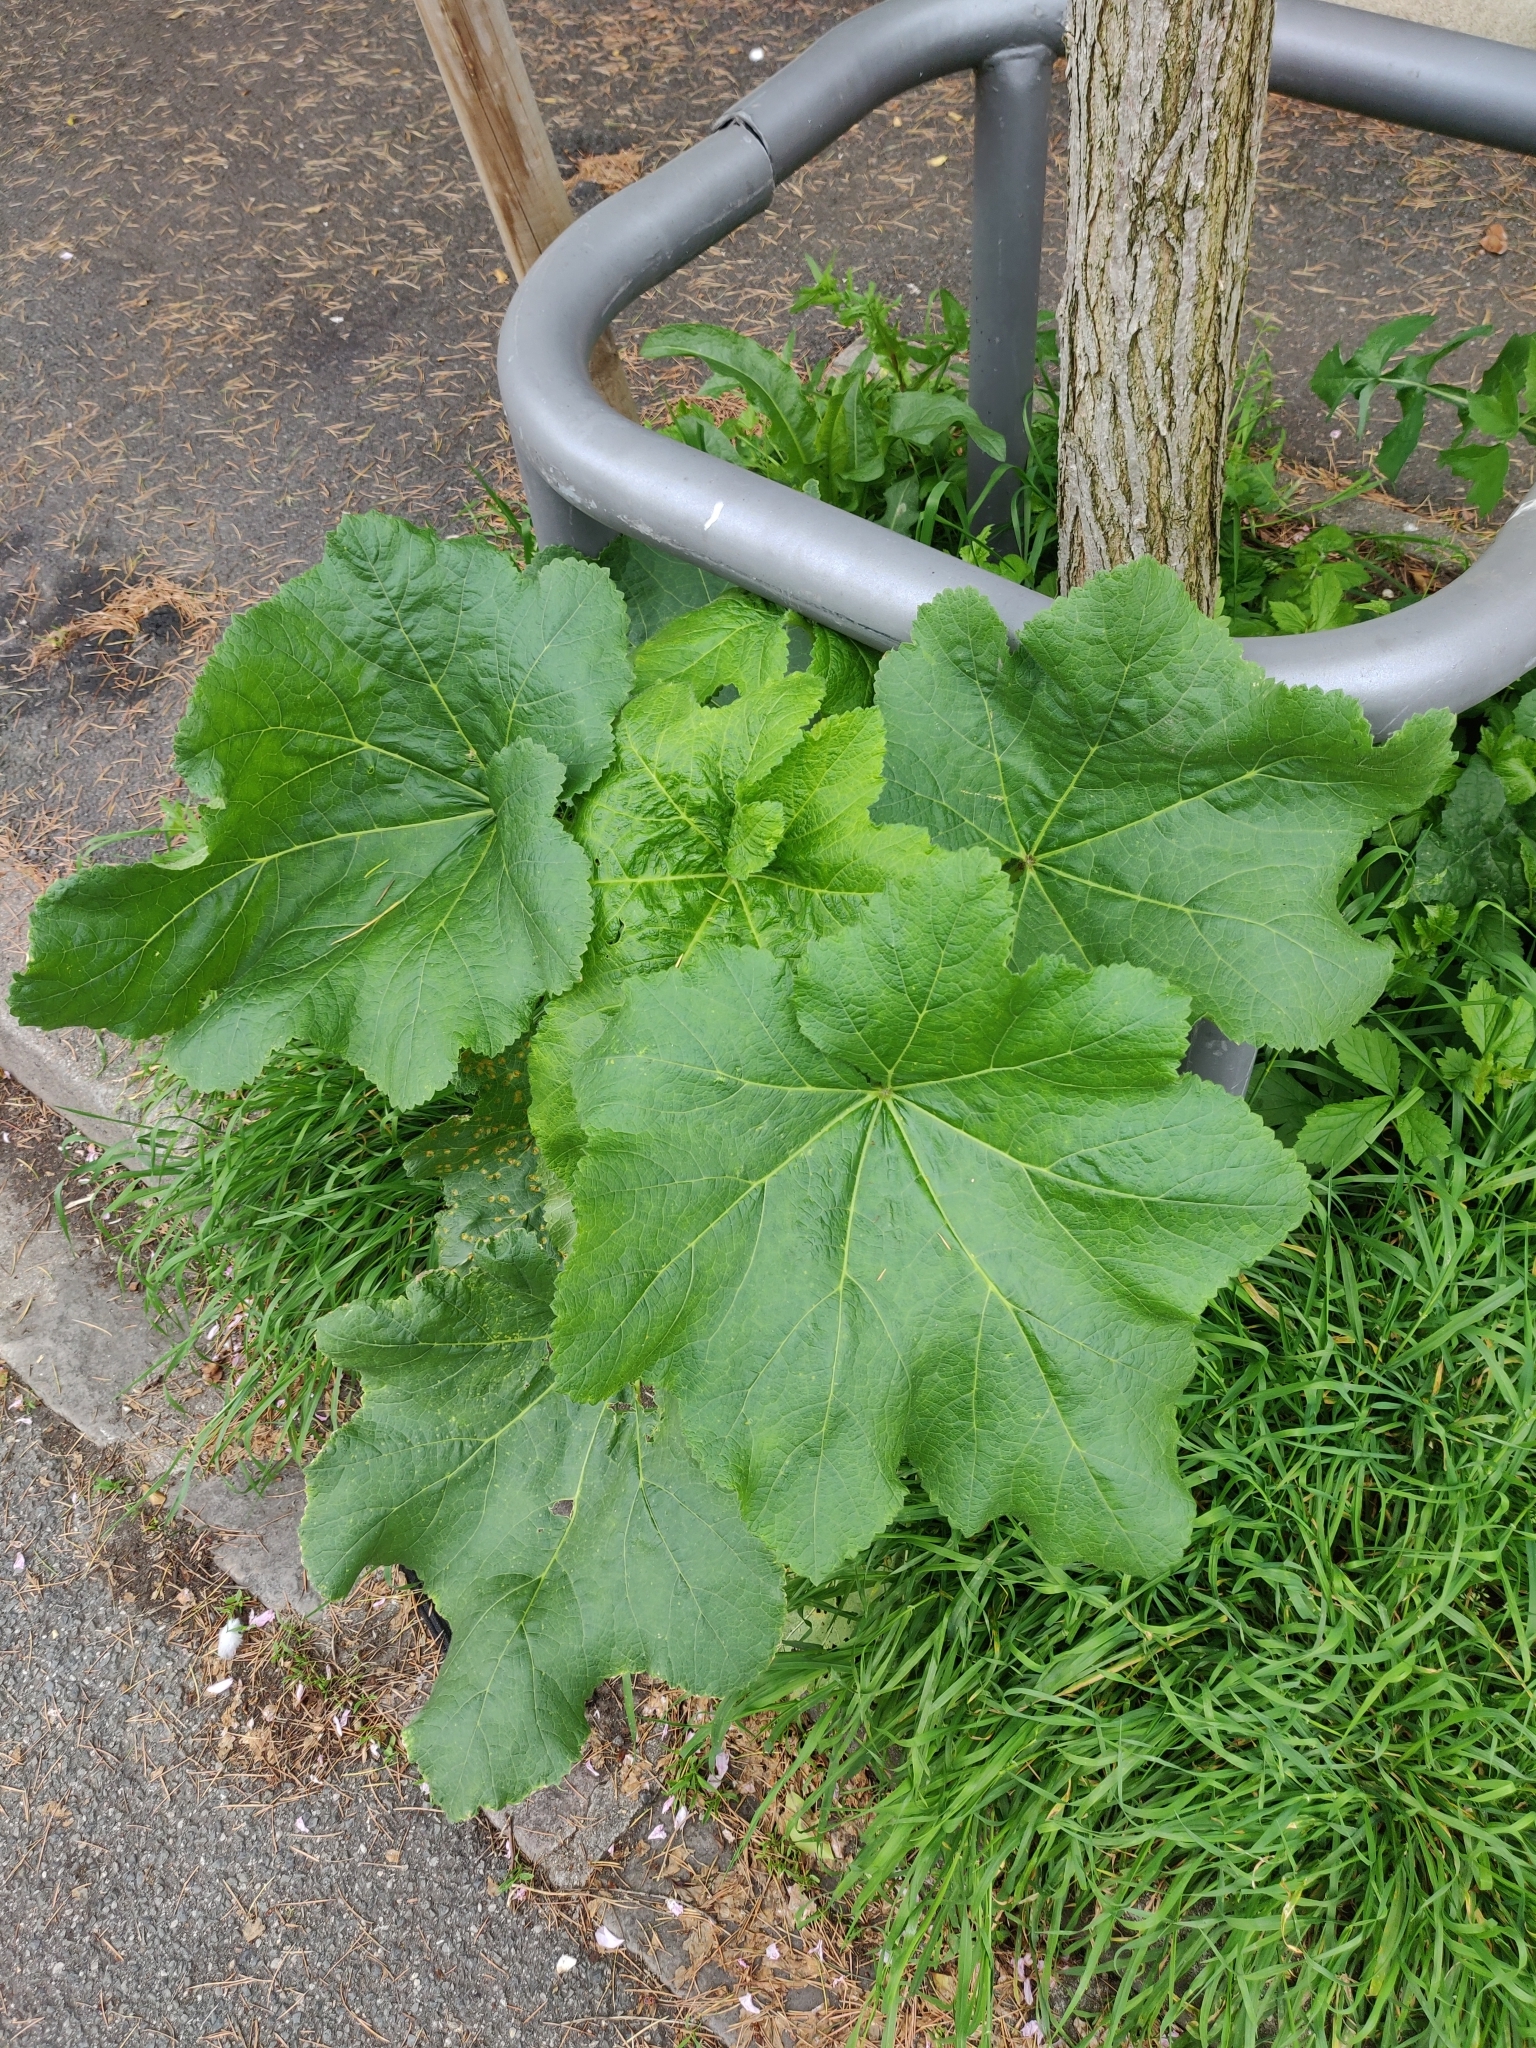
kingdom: Plantae
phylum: Tracheophyta
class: Magnoliopsida
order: Malvales
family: Malvaceae
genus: Alcea
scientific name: Alcea rosea
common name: Hollyhock
